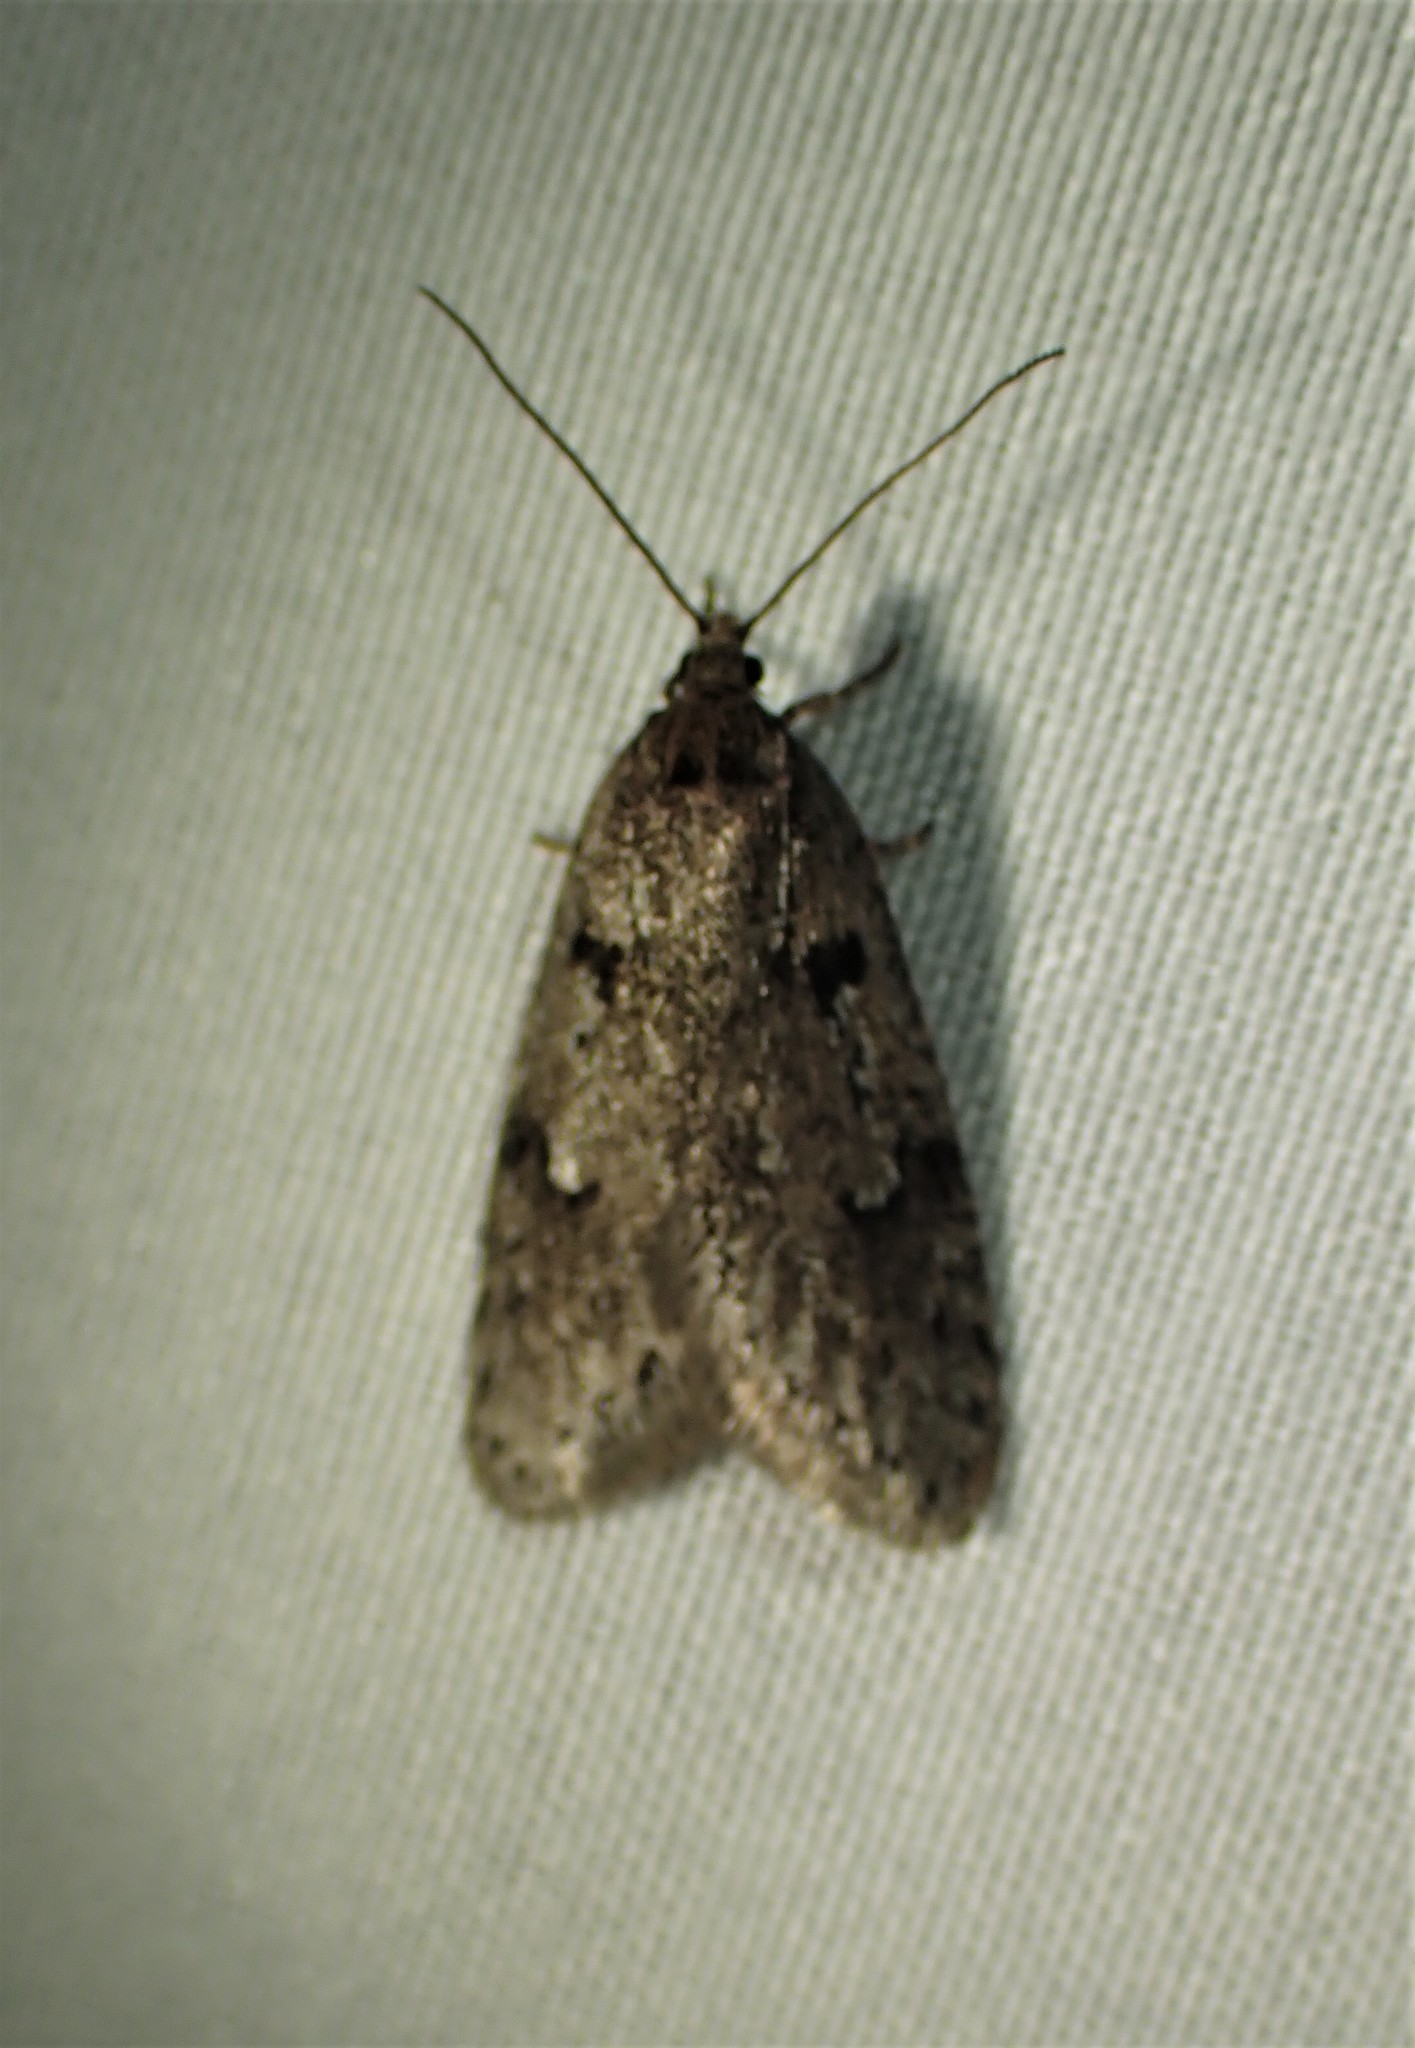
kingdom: Animalia
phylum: Arthropoda
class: Insecta
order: Lepidoptera
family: Depressariidae
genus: Semioscopis
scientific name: Semioscopis megamicrella
